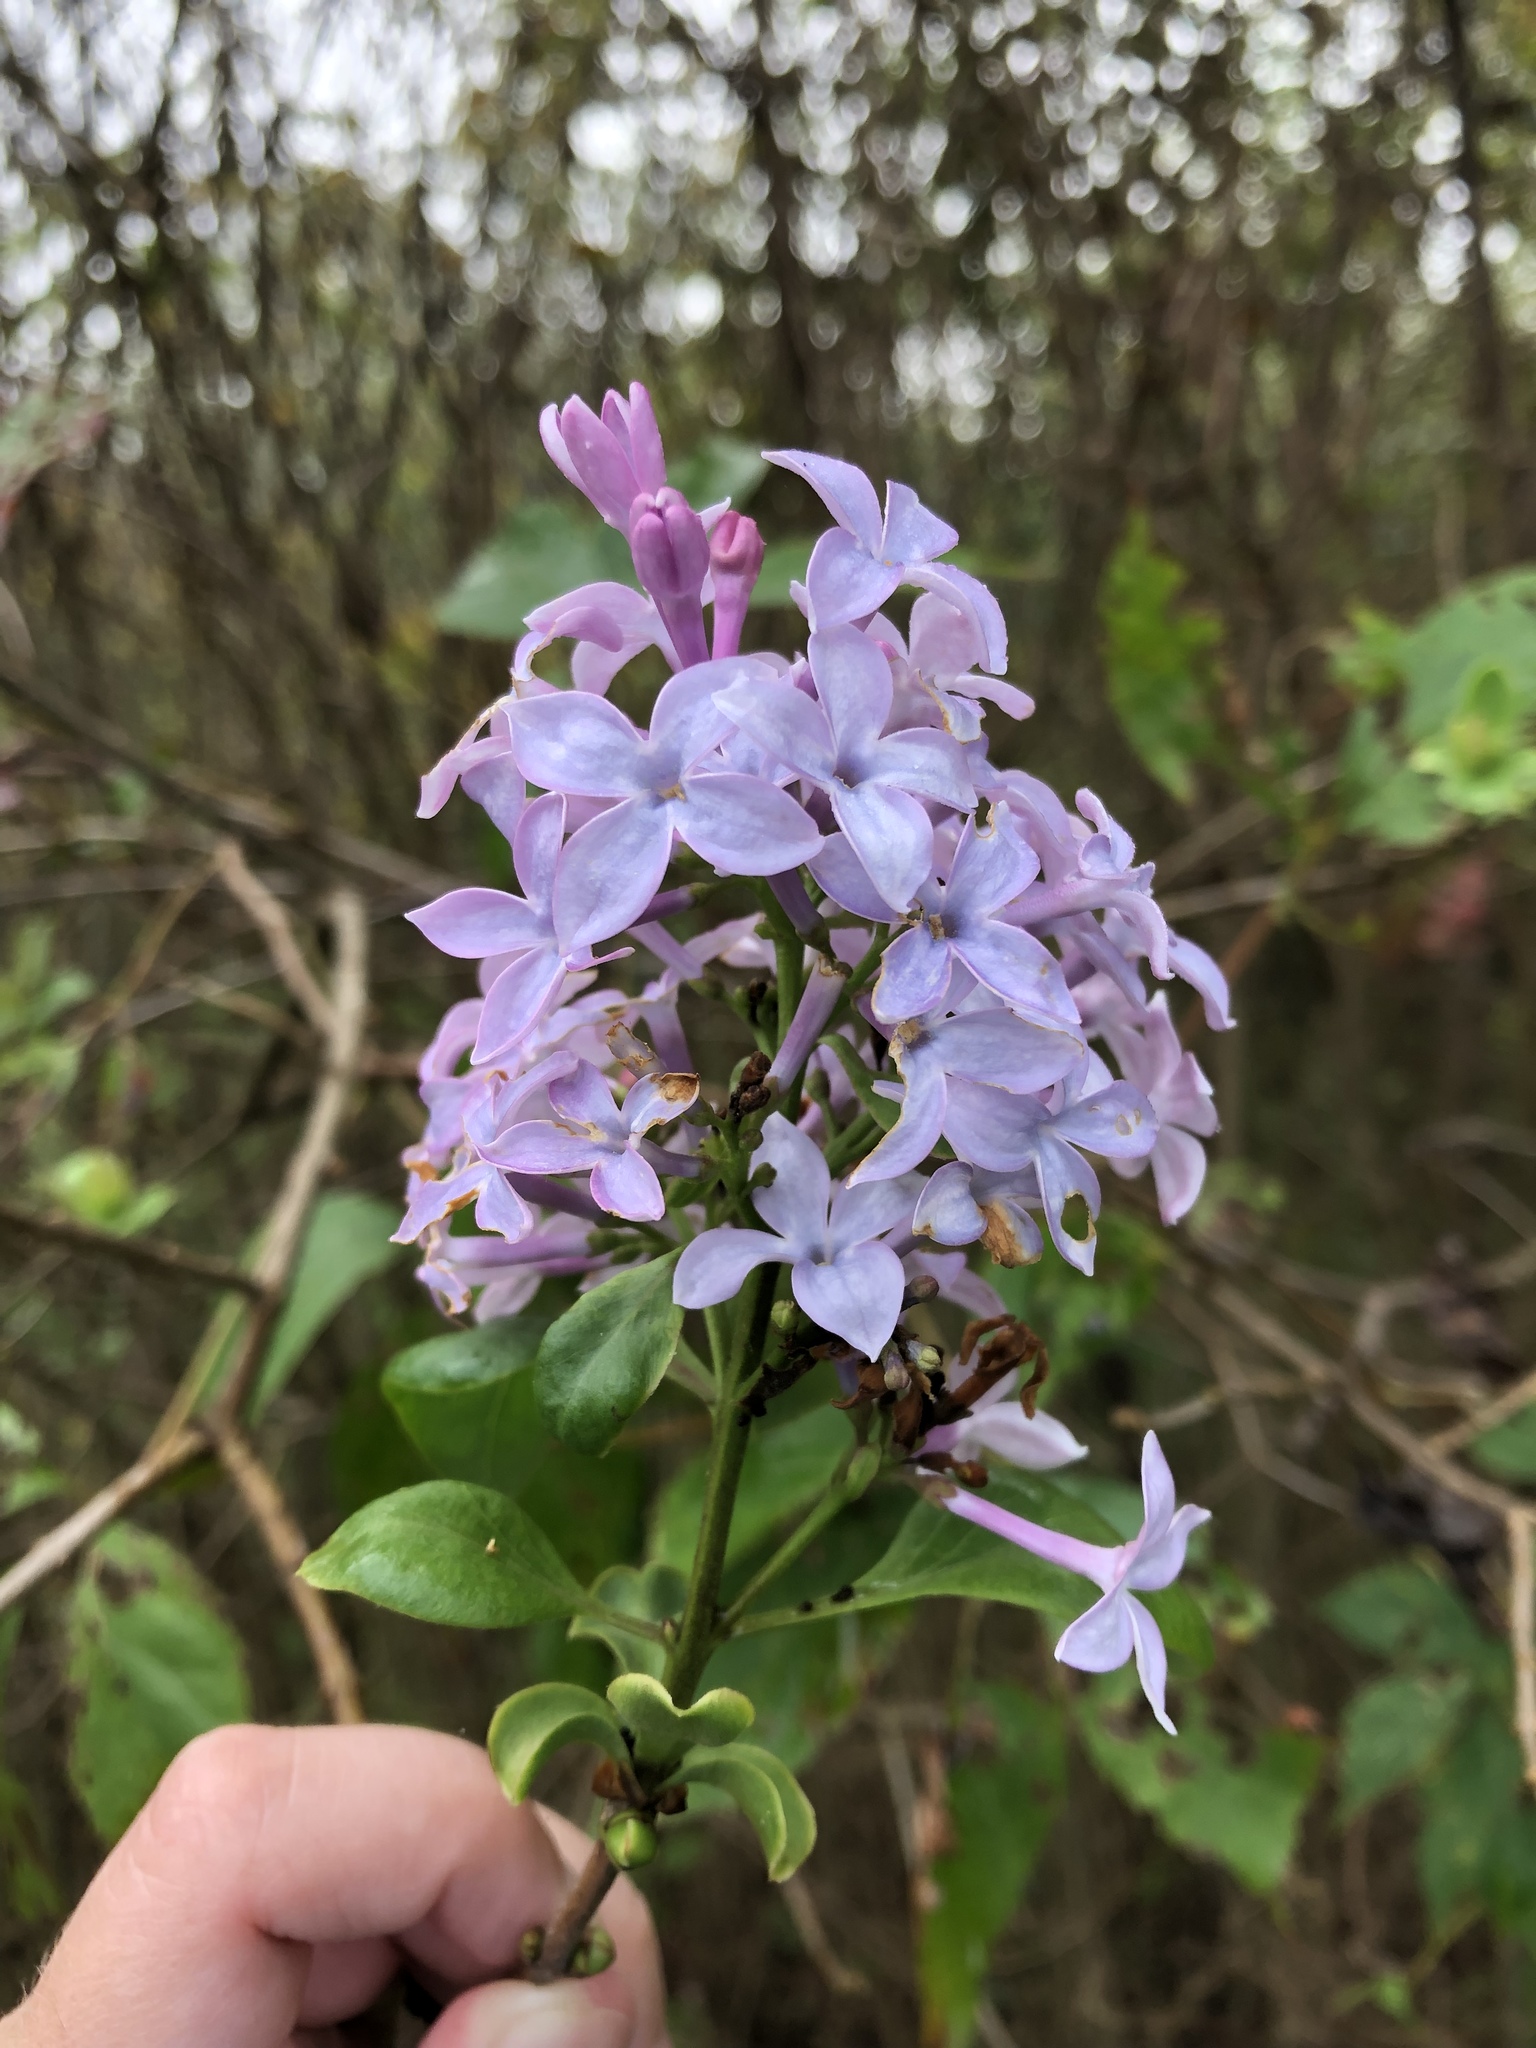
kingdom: Plantae
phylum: Tracheophyta
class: Magnoliopsida
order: Lamiales
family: Oleaceae
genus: Syringa
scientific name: Syringa vulgaris
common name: Common lilac
